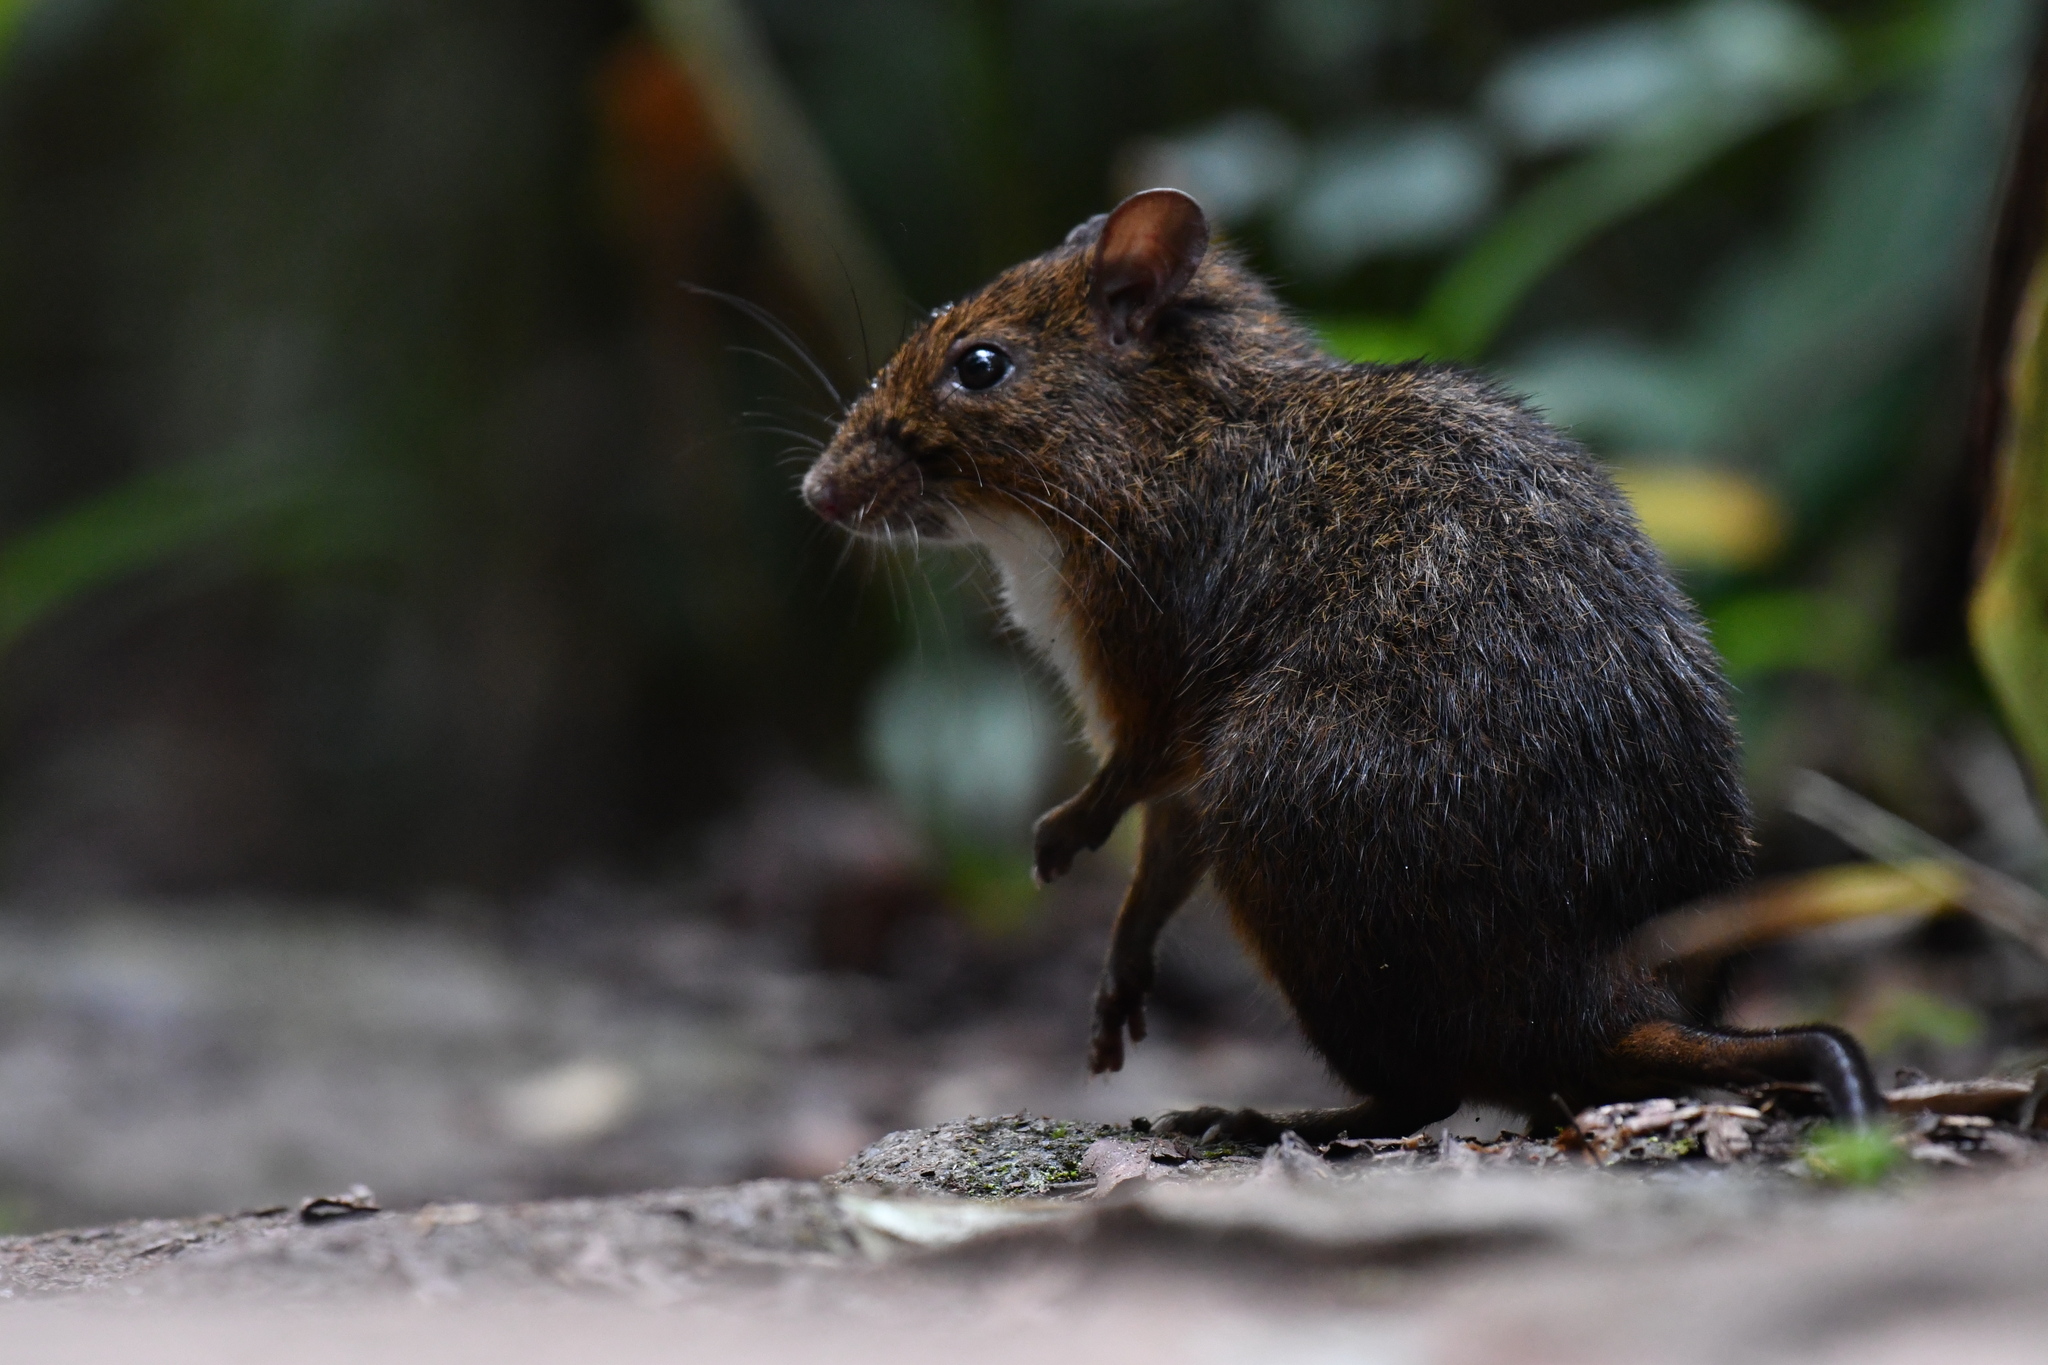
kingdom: Animalia
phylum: Chordata
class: Mammalia
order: Rodentia
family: Nesomyidae
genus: Nesomys
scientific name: Nesomys audeberti
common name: White-bellied nesomys
